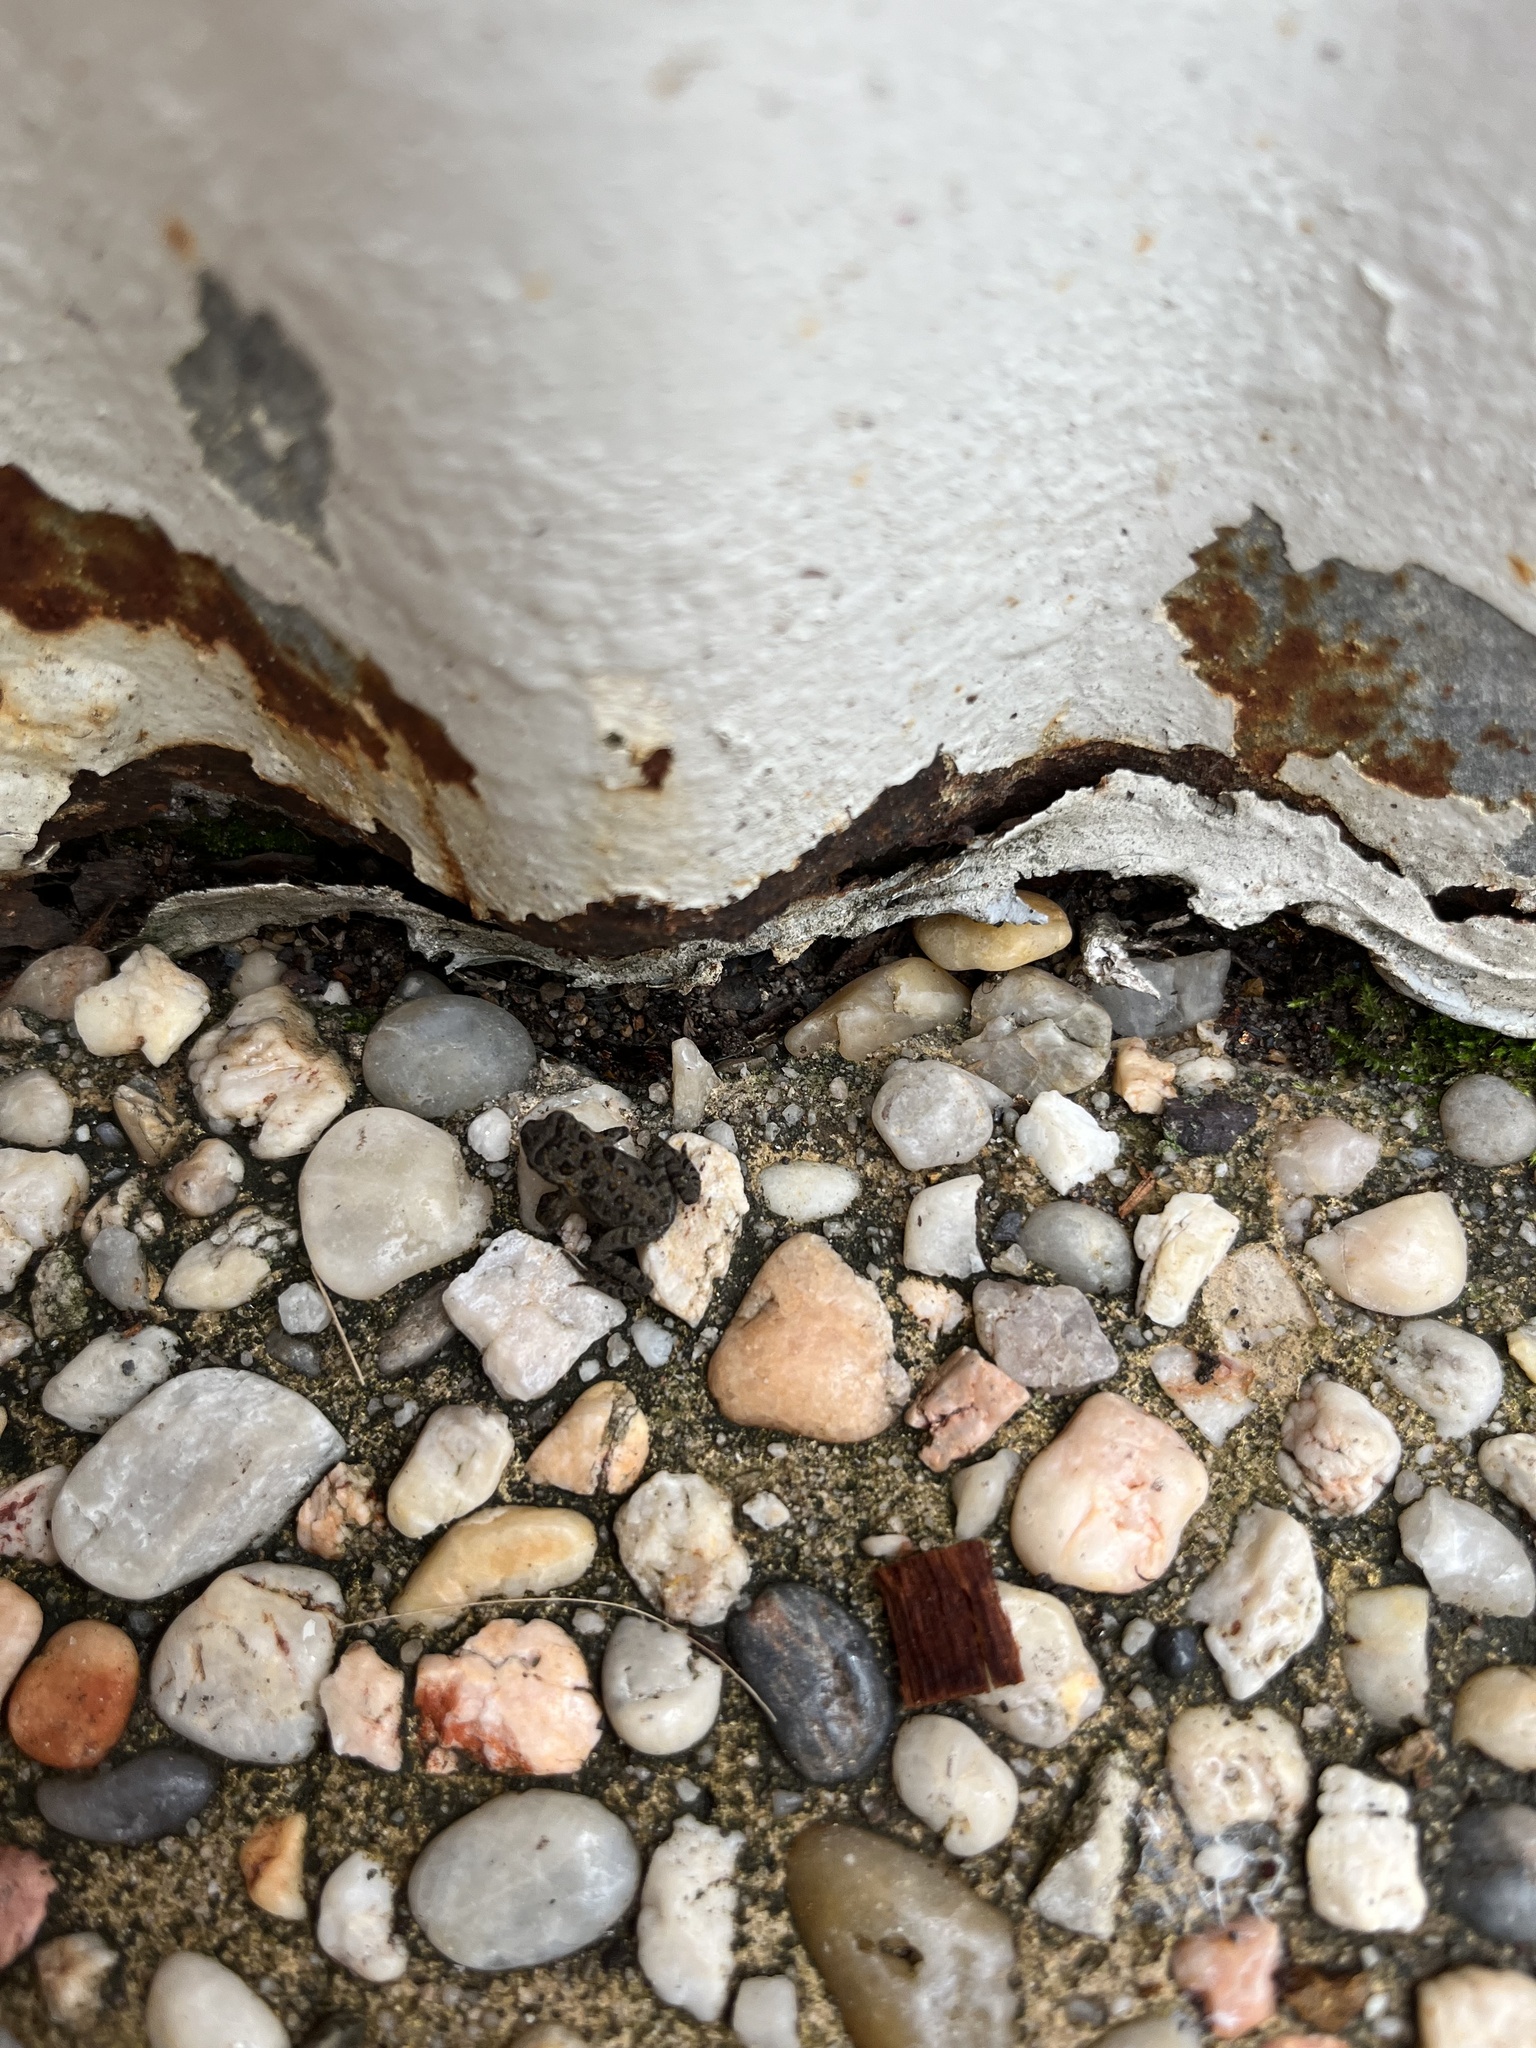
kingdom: Animalia
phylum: Chordata
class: Amphibia
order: Anura
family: Bufonidae
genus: Rhinella
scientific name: Rhinella marina
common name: Cane toad
